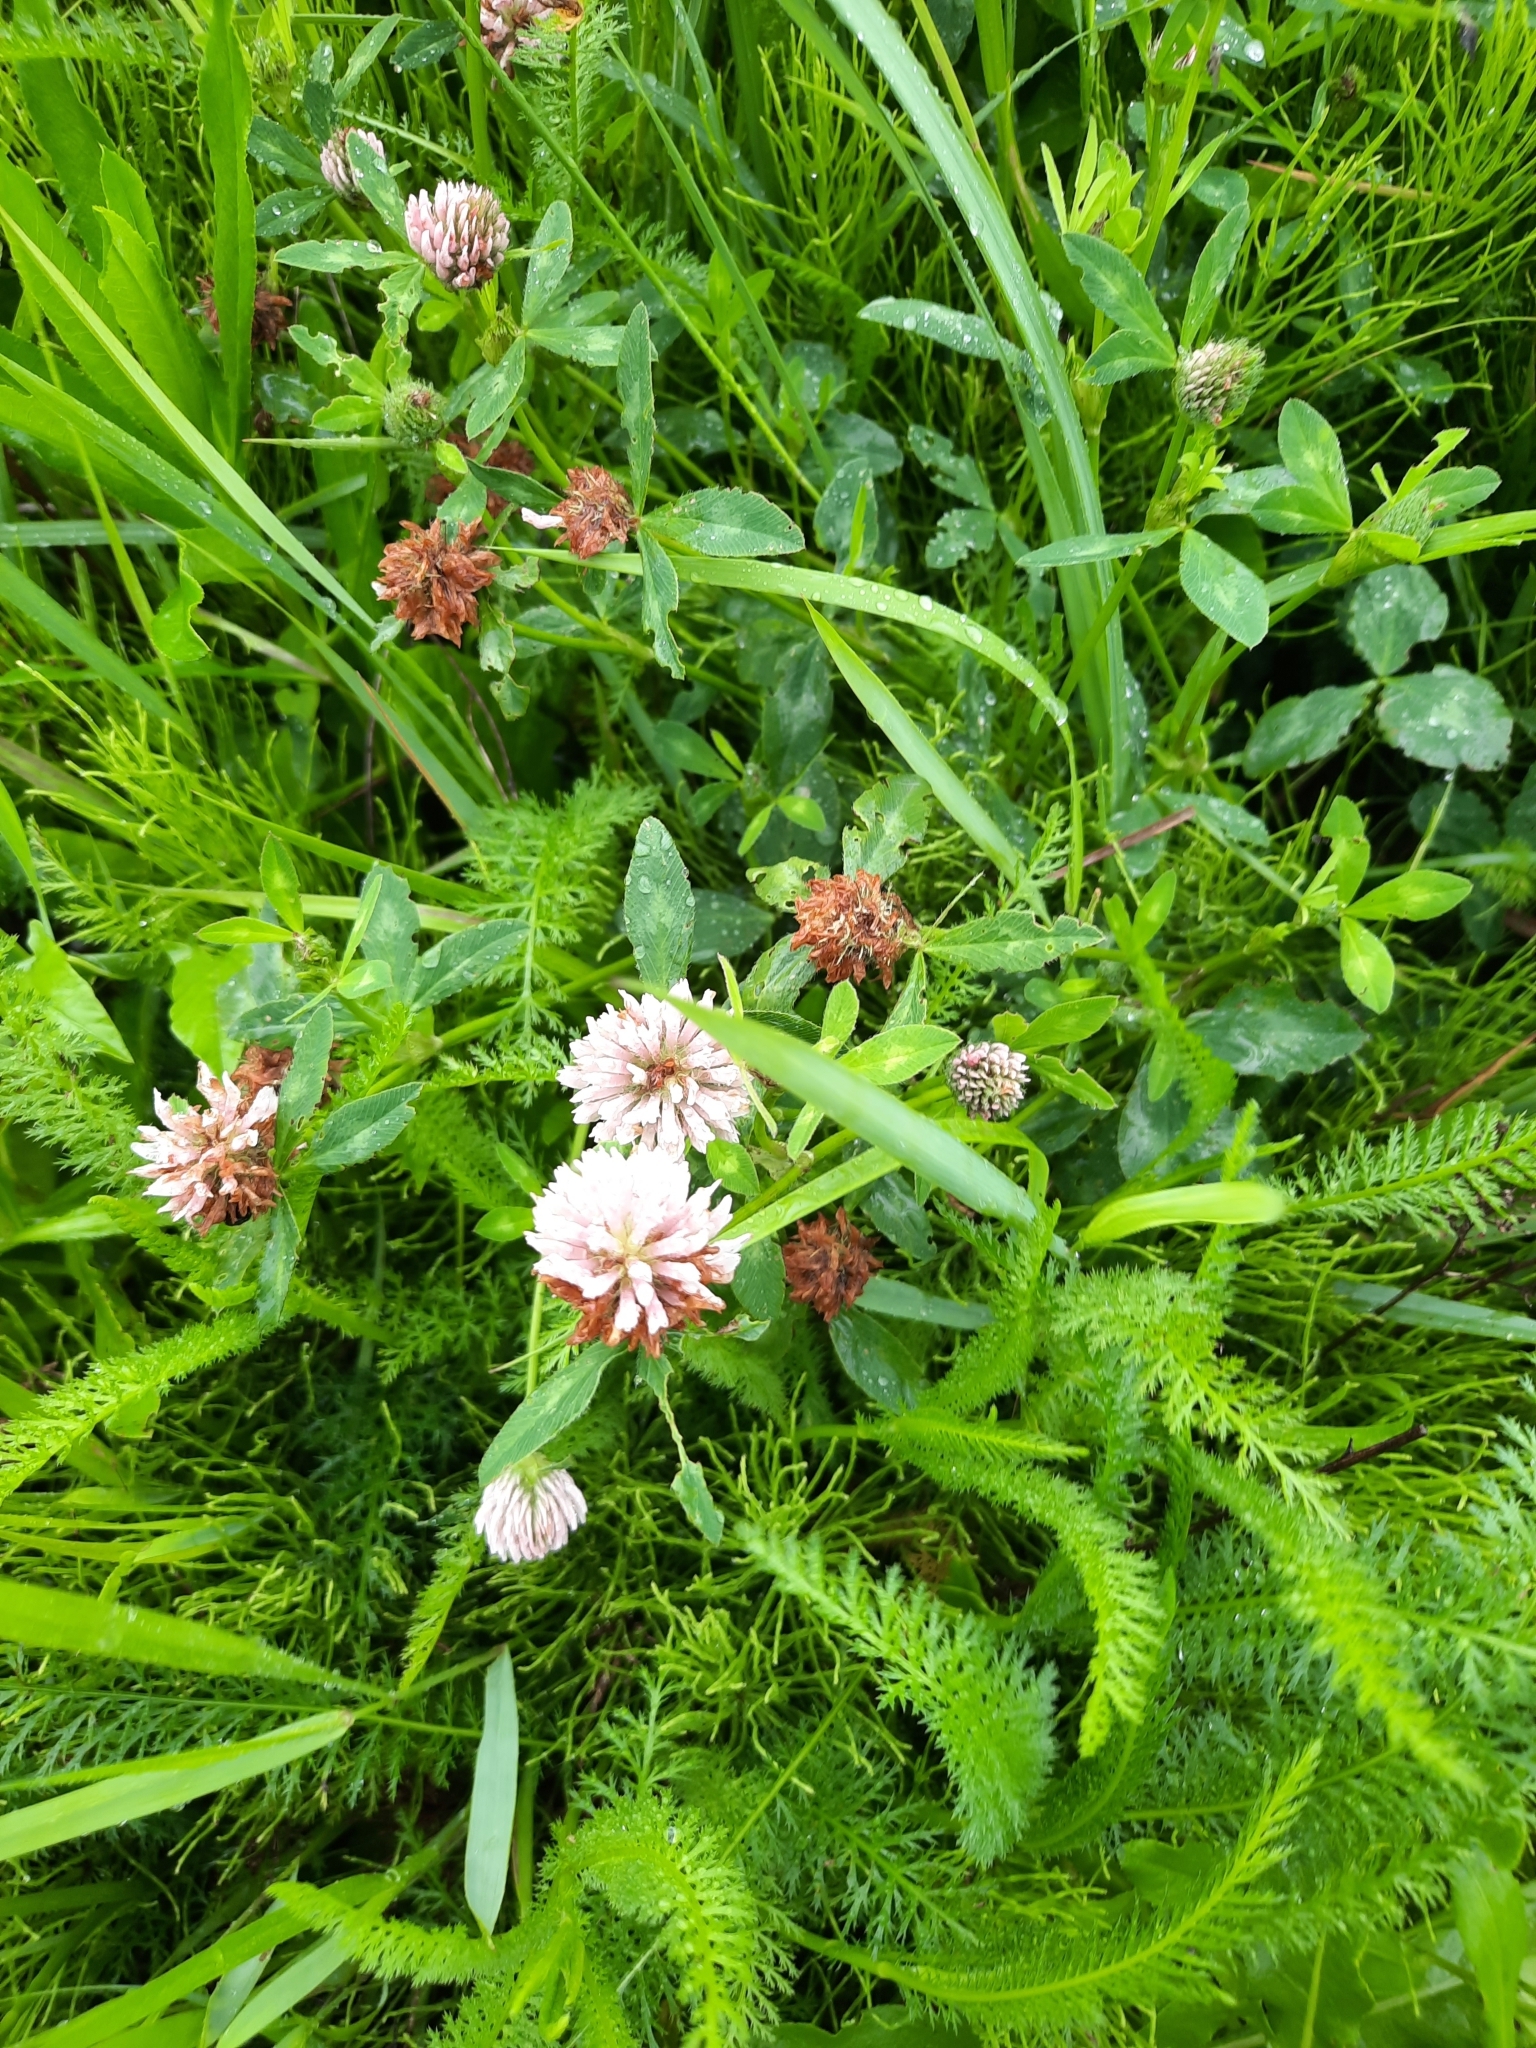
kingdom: Plantae
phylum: Tracheophyta
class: Magnoliopsida
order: Fabales
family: Fabaceae
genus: Trifolium
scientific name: Trifolium pratense
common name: Red clover
